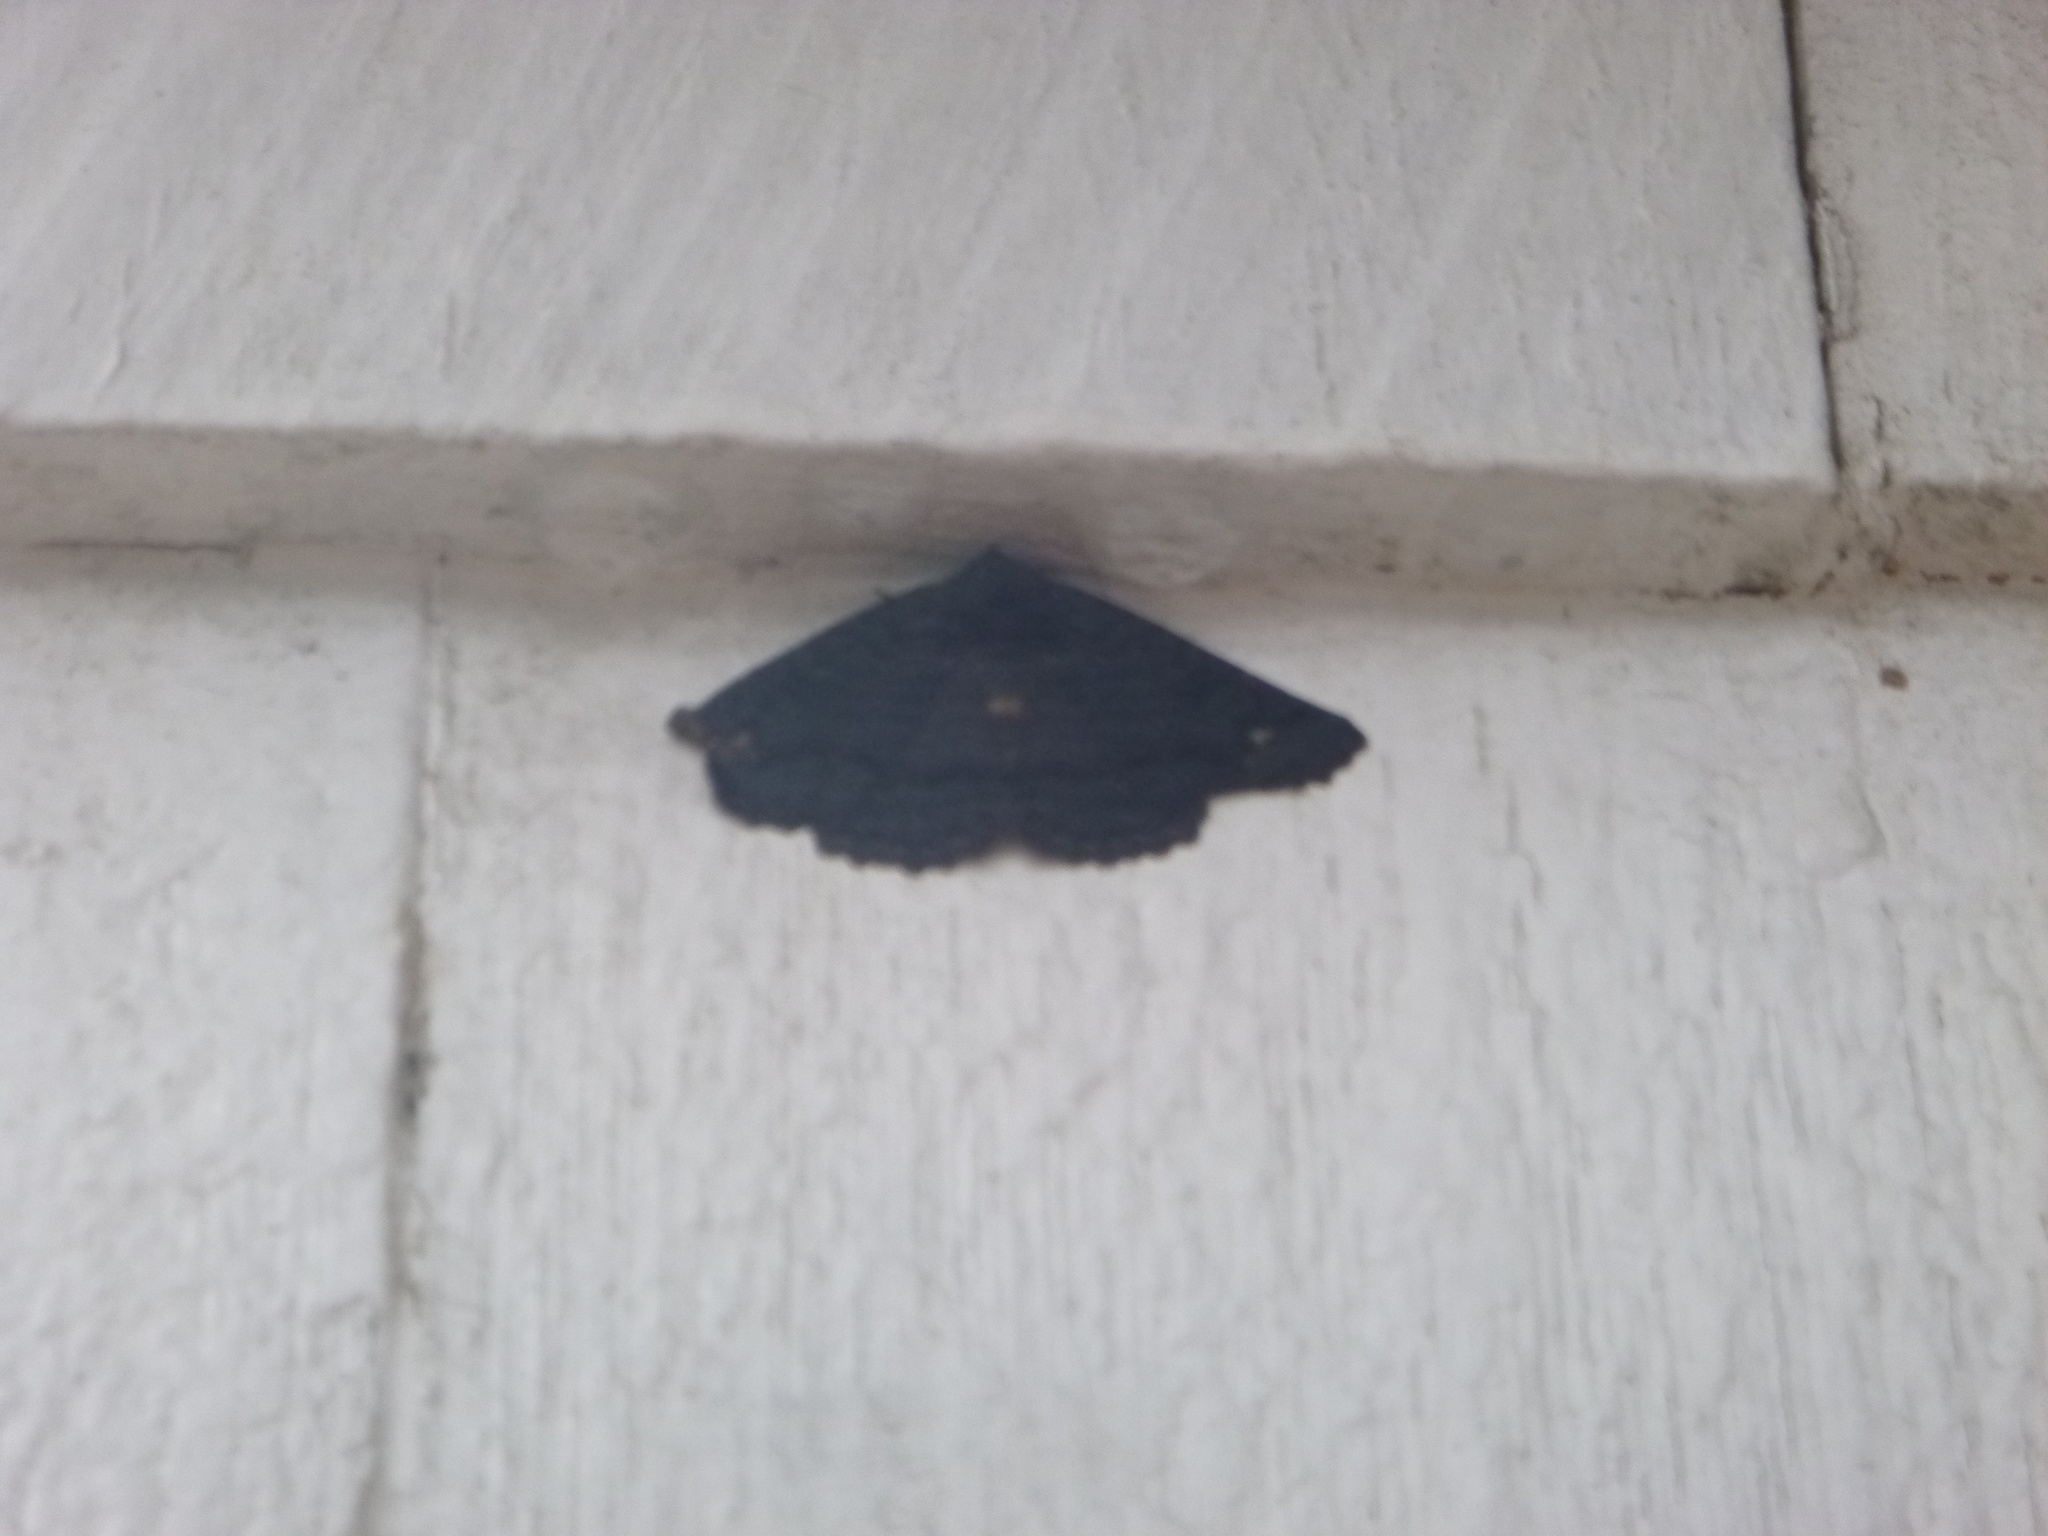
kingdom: Animalia
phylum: Arthropoda
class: Insecta
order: Lepidoptera
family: Erebidae
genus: Zale
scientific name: Zale undularis
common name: Black zale moth
